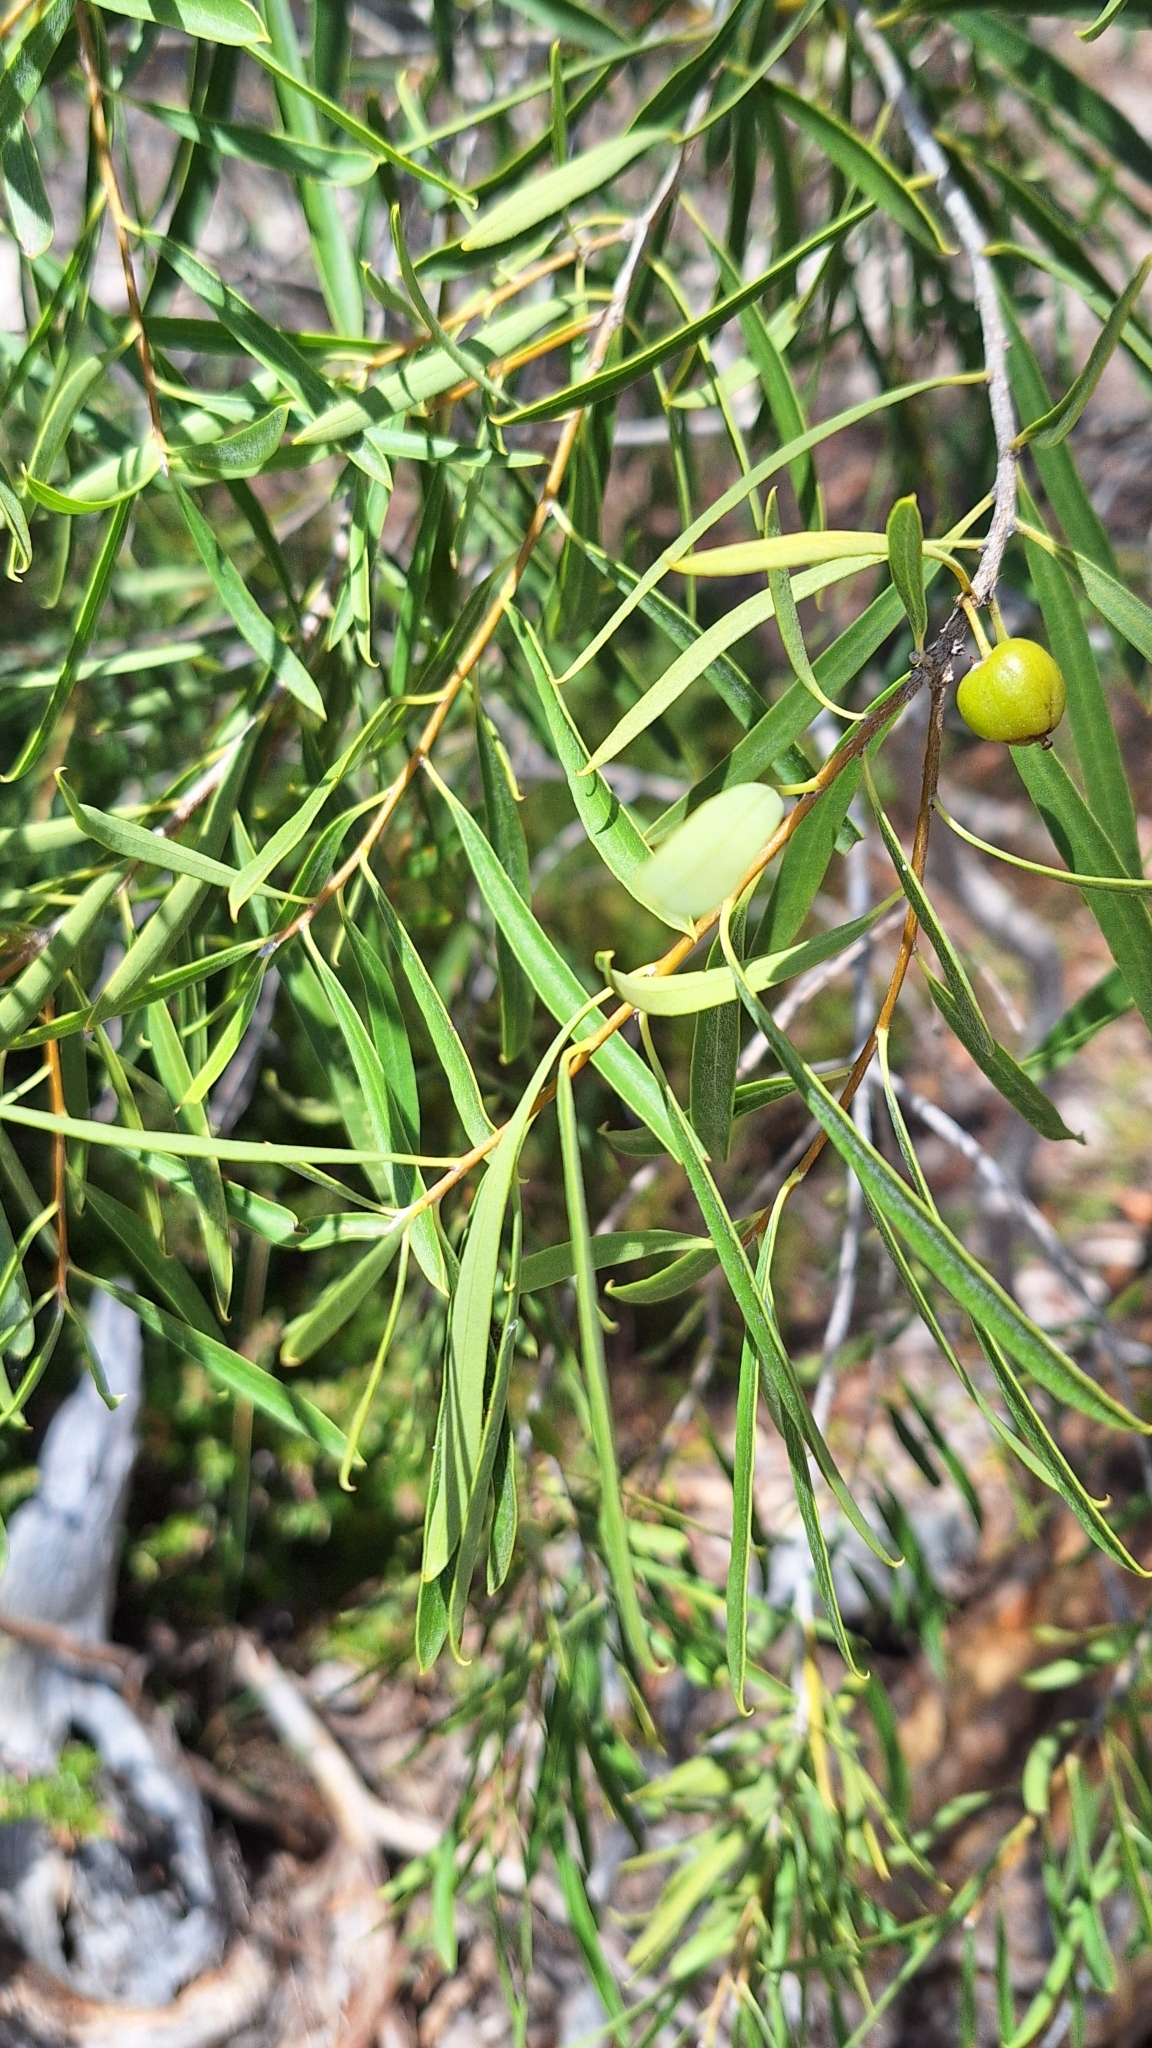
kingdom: Plantae
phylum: Tracheophyta
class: Magnoliopsida
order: Apiales
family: Pittosporaceae
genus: Pittosporum
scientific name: Pittosporum angustifolium
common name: Weeping pittosporum
